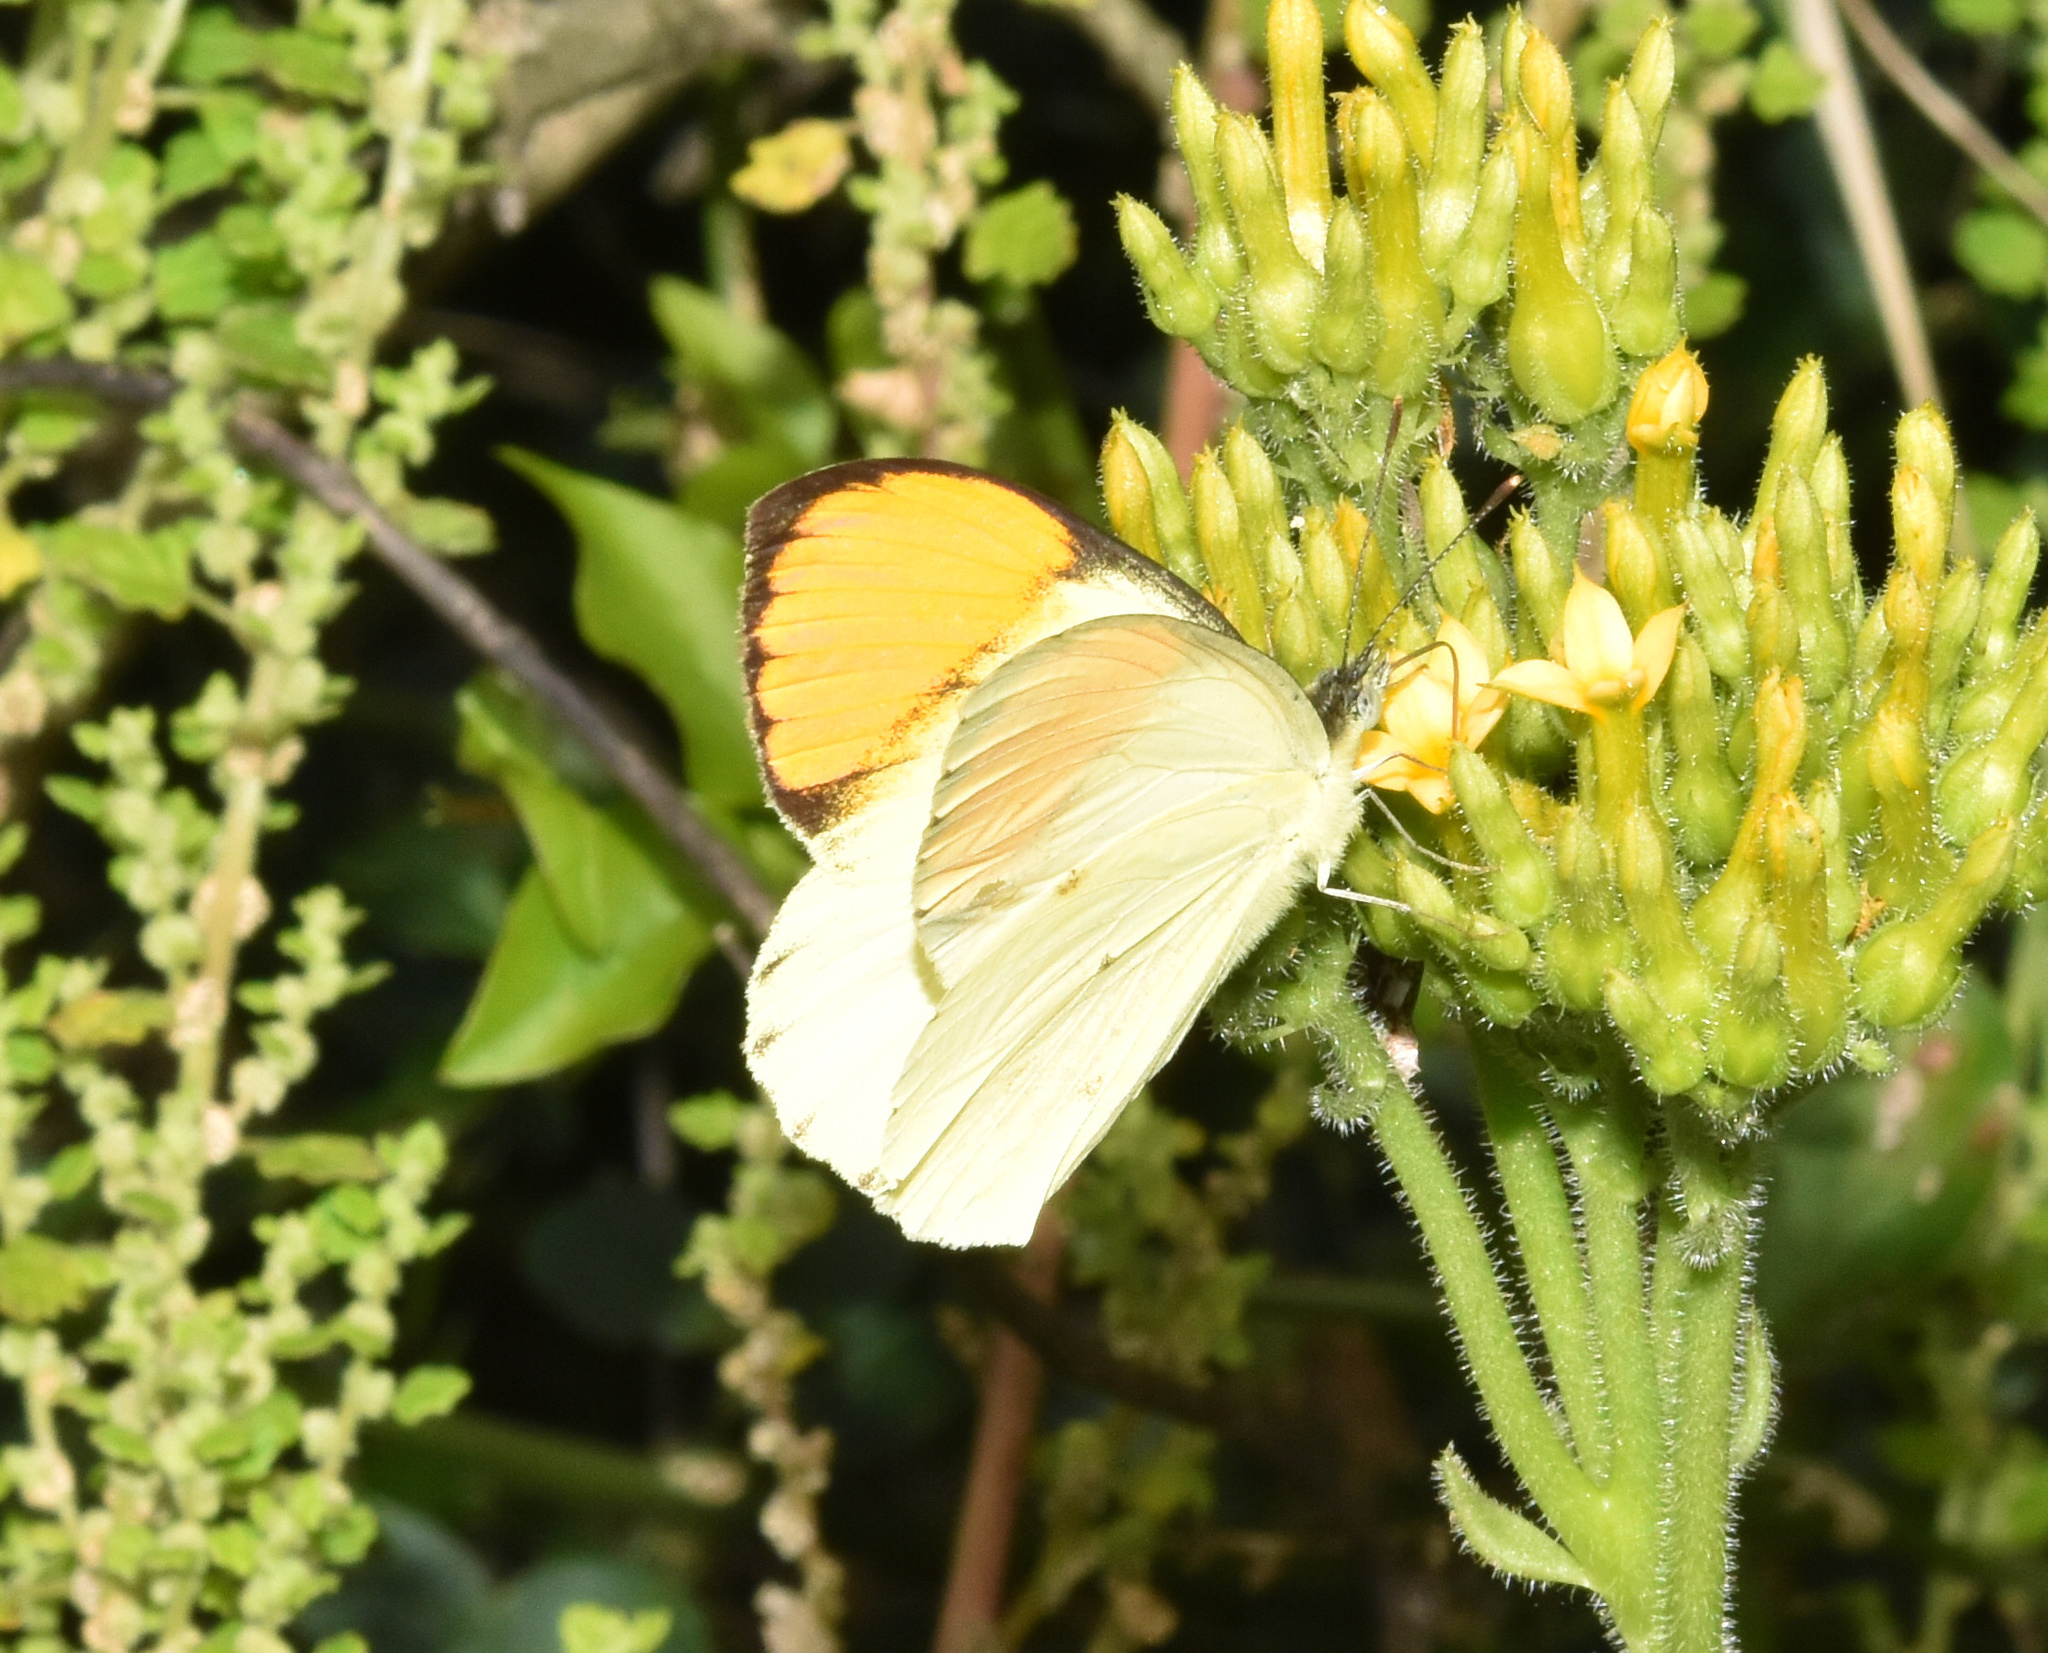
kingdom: Animalia
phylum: Arthropoda
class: Insecta
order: Lepidoptera
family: Pieridae
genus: Colotis
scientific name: Colotis auxo
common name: Sulphur orange tip
